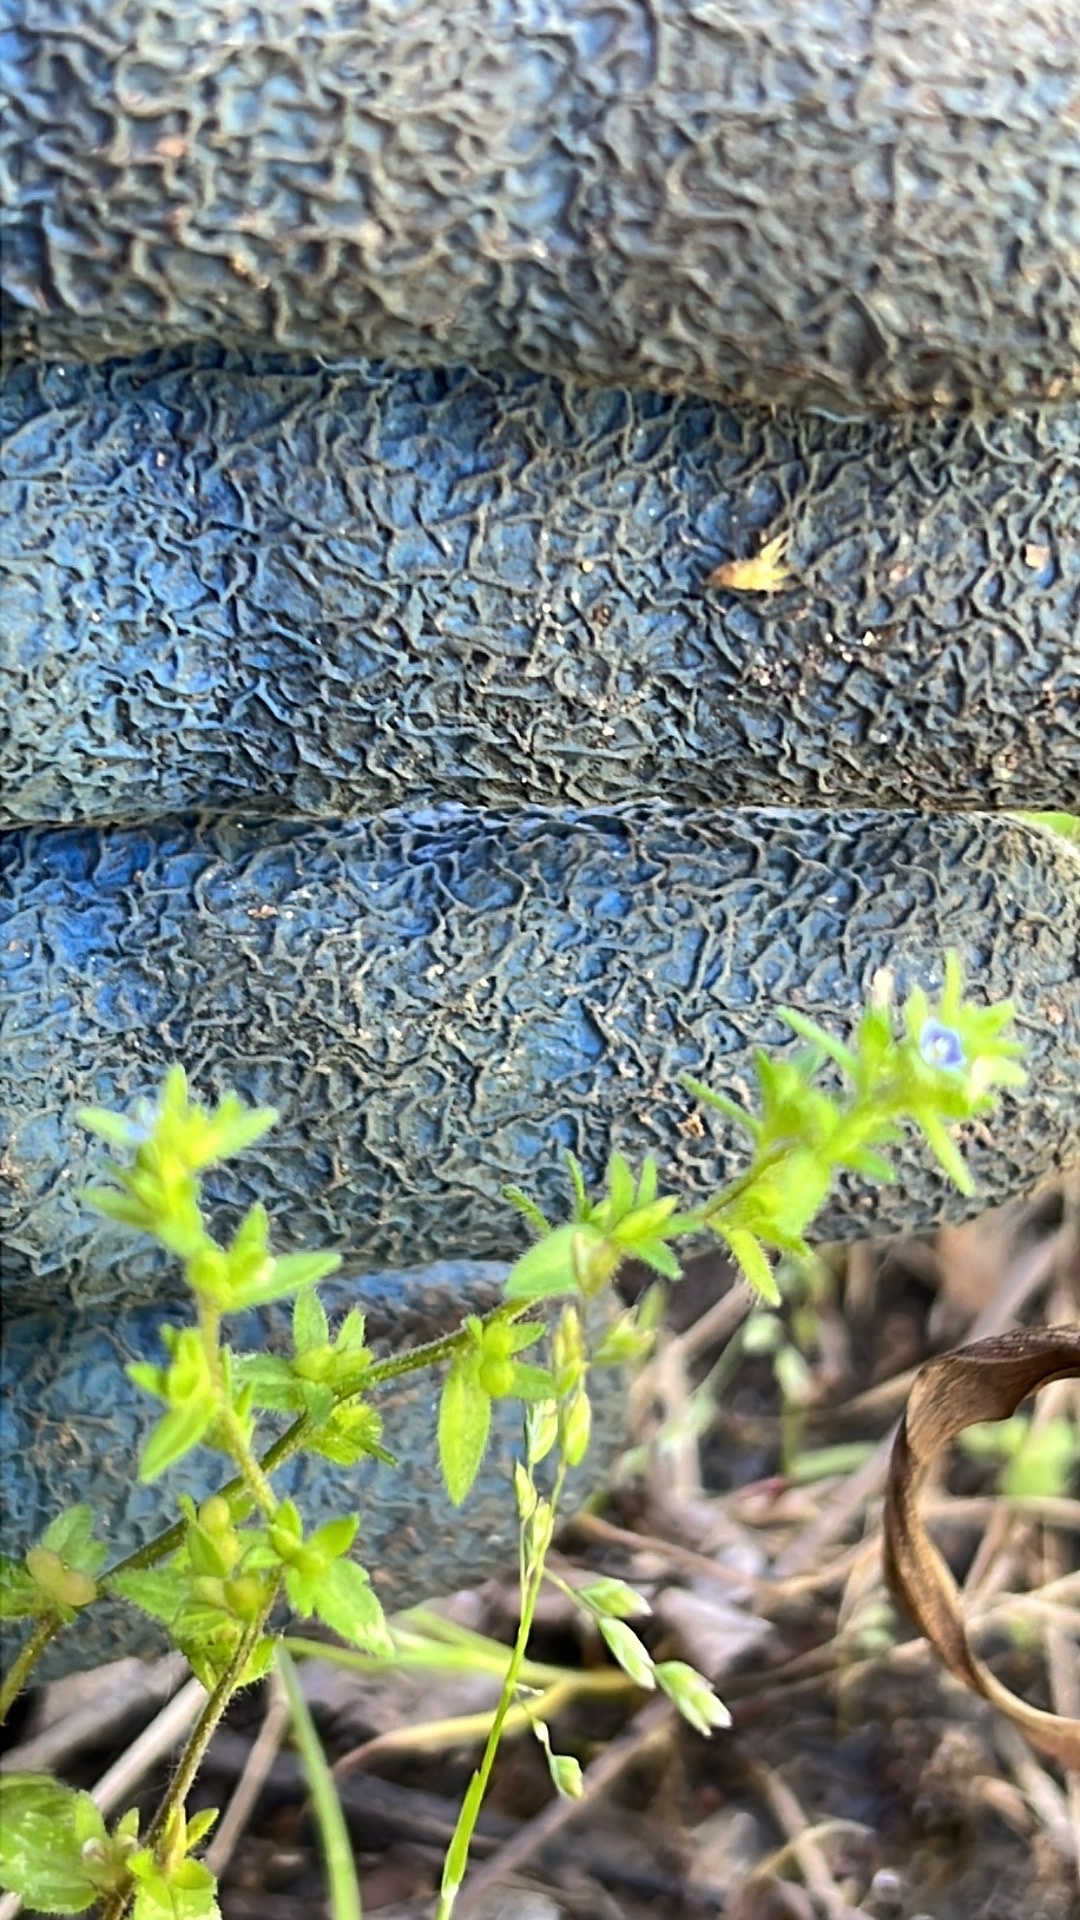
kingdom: Plantae
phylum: Tracheophyta
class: Magnoliopsida
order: Lamiales
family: Plantaginaceae
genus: Veronica
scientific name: Veronica arvensis
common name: Corn speedwell
